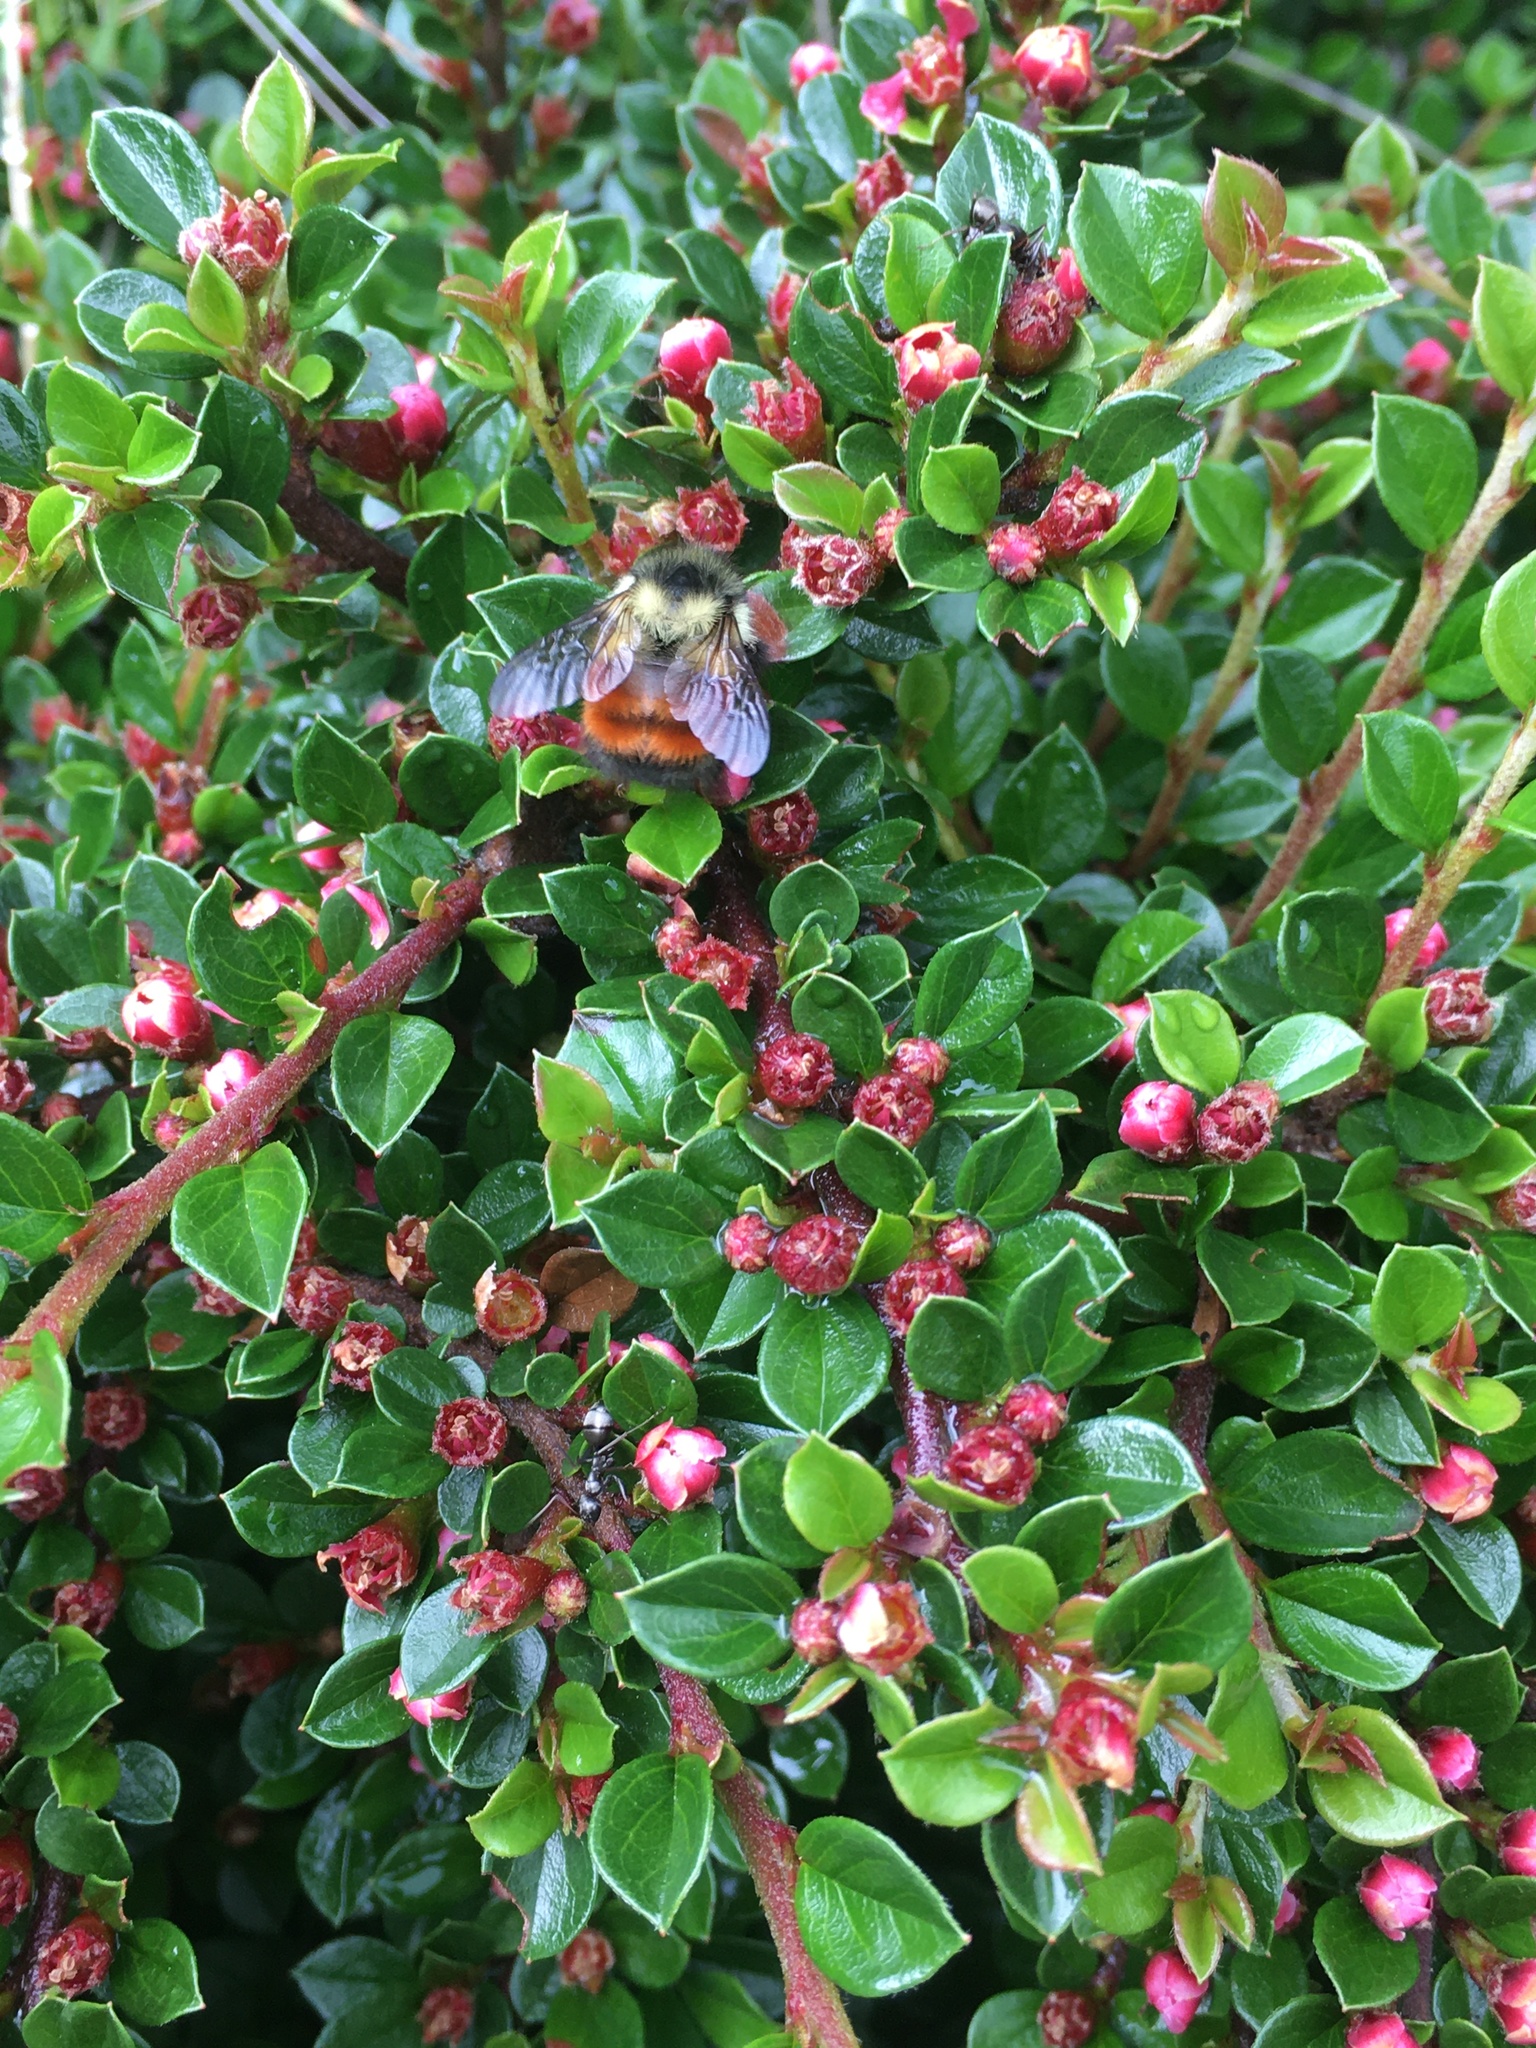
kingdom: Animalia
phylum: Arthropoda
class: Insecta
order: Hymenoptera
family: Apidae
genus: Bombus
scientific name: Bombus melanopygus
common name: Black tail bumble bee
